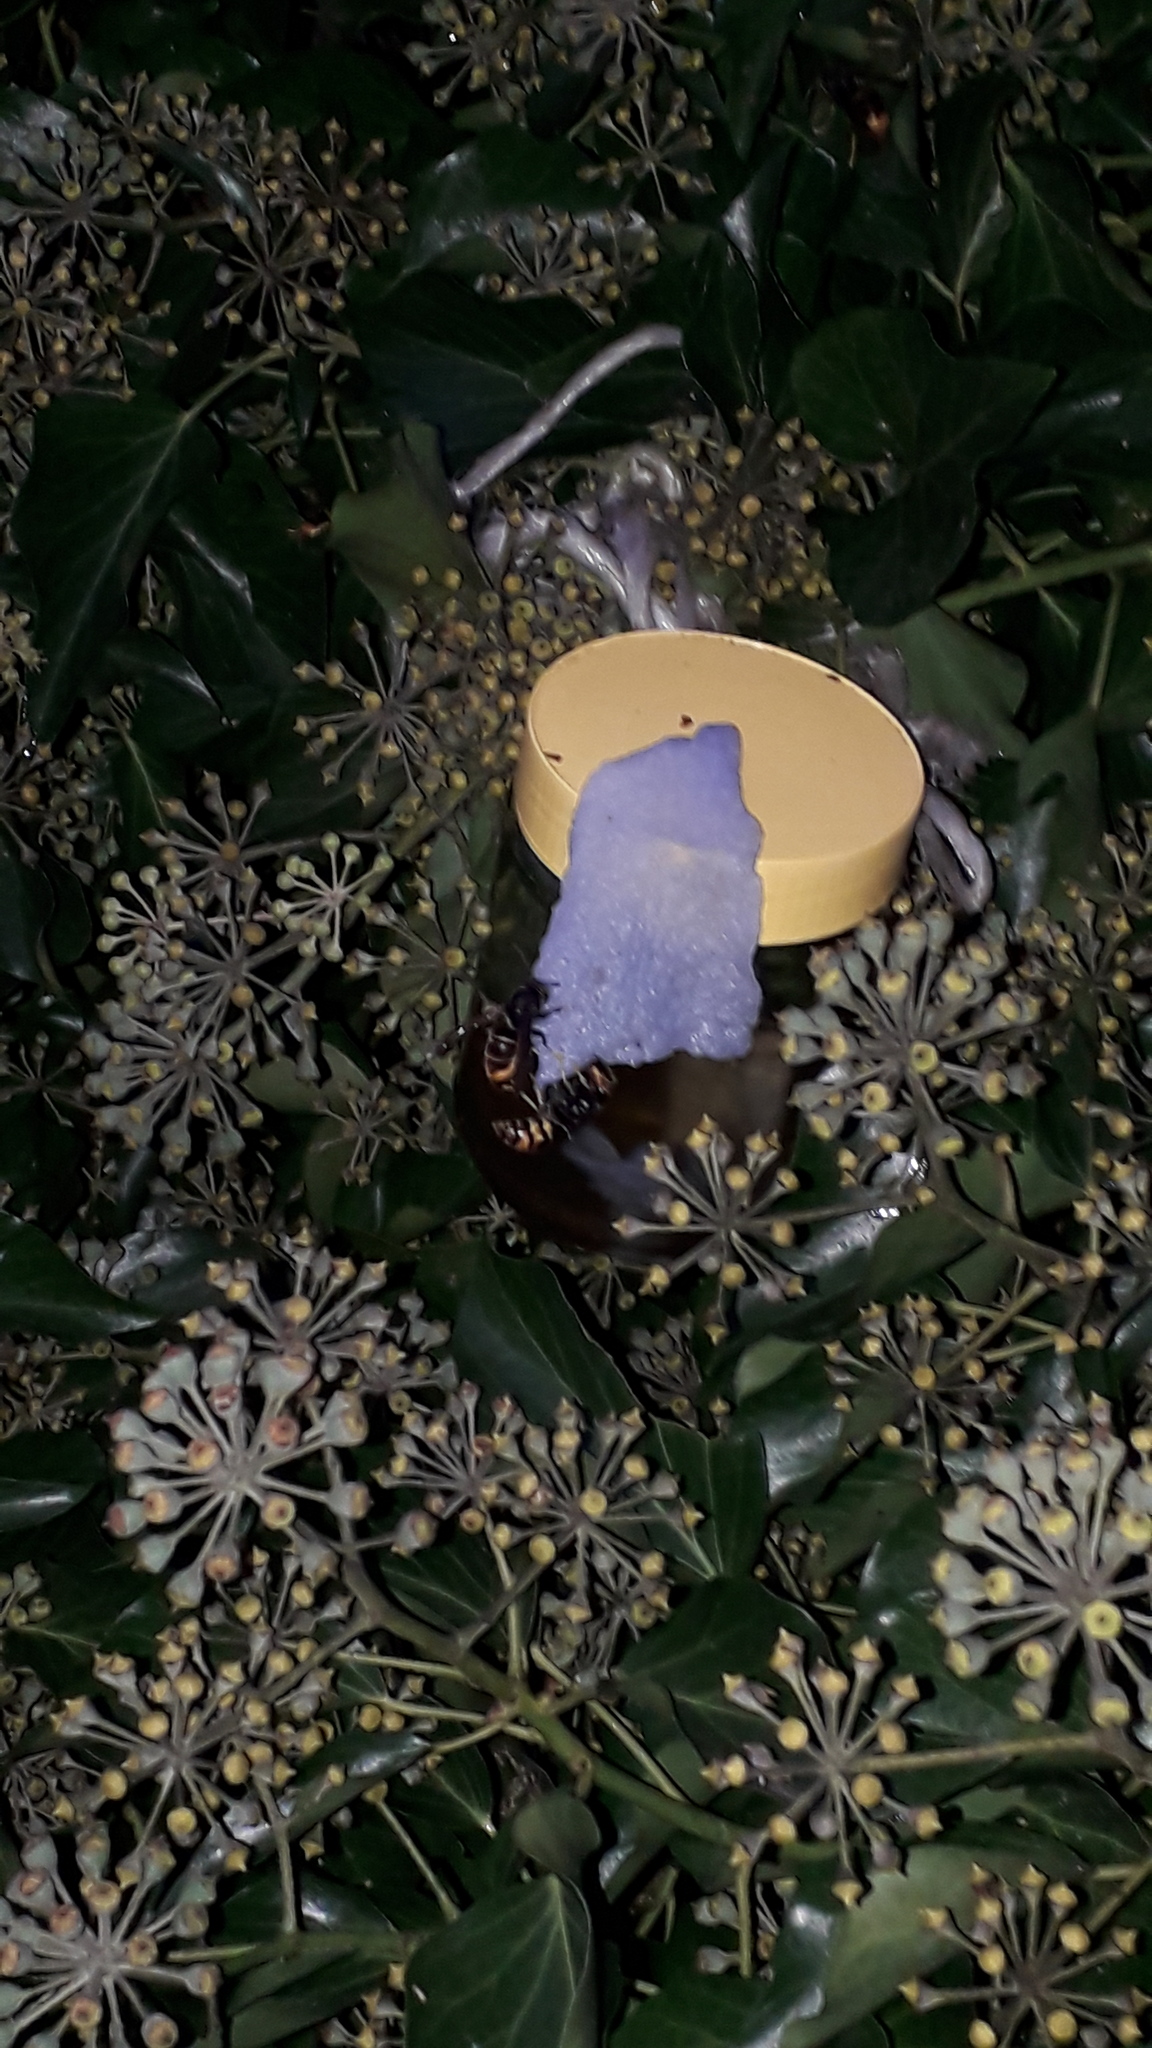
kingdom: Animalia
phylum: Arthropoda
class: Insecta
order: Hymenoptera
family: Vespidae
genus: Vespa
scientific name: Vespa velutina
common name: Asian hornet
